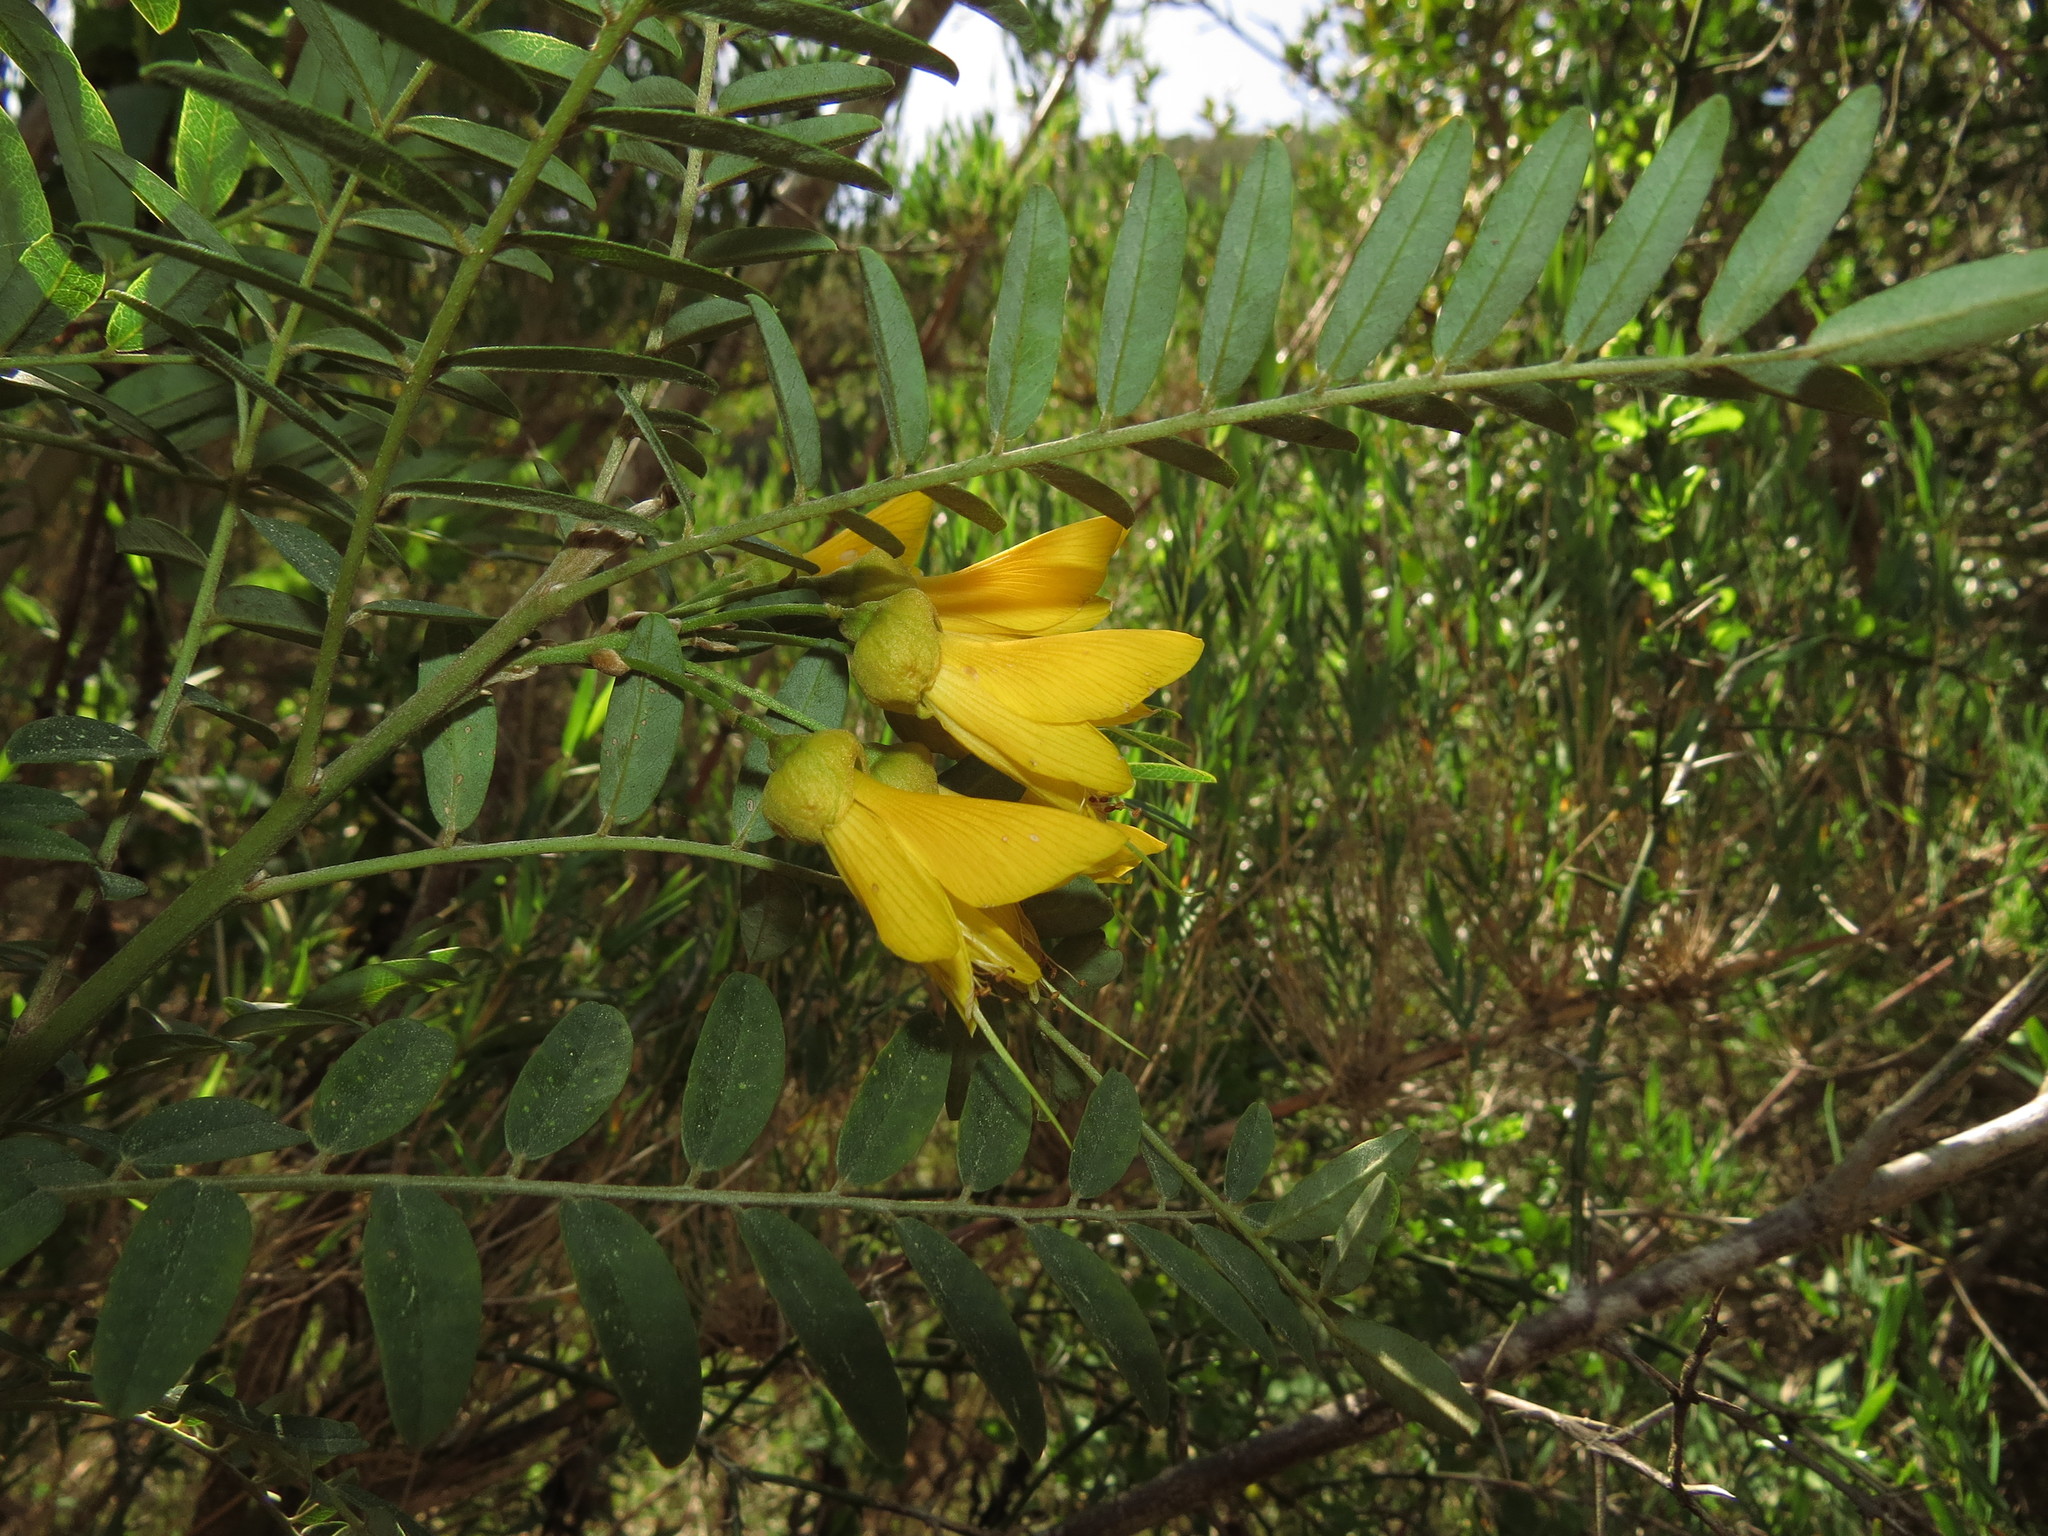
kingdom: Plantae
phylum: Tracheophyta
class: Magnoliopsida
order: Fabales
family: Fabaceae
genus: Sophora
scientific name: Sophora macrocarpa
